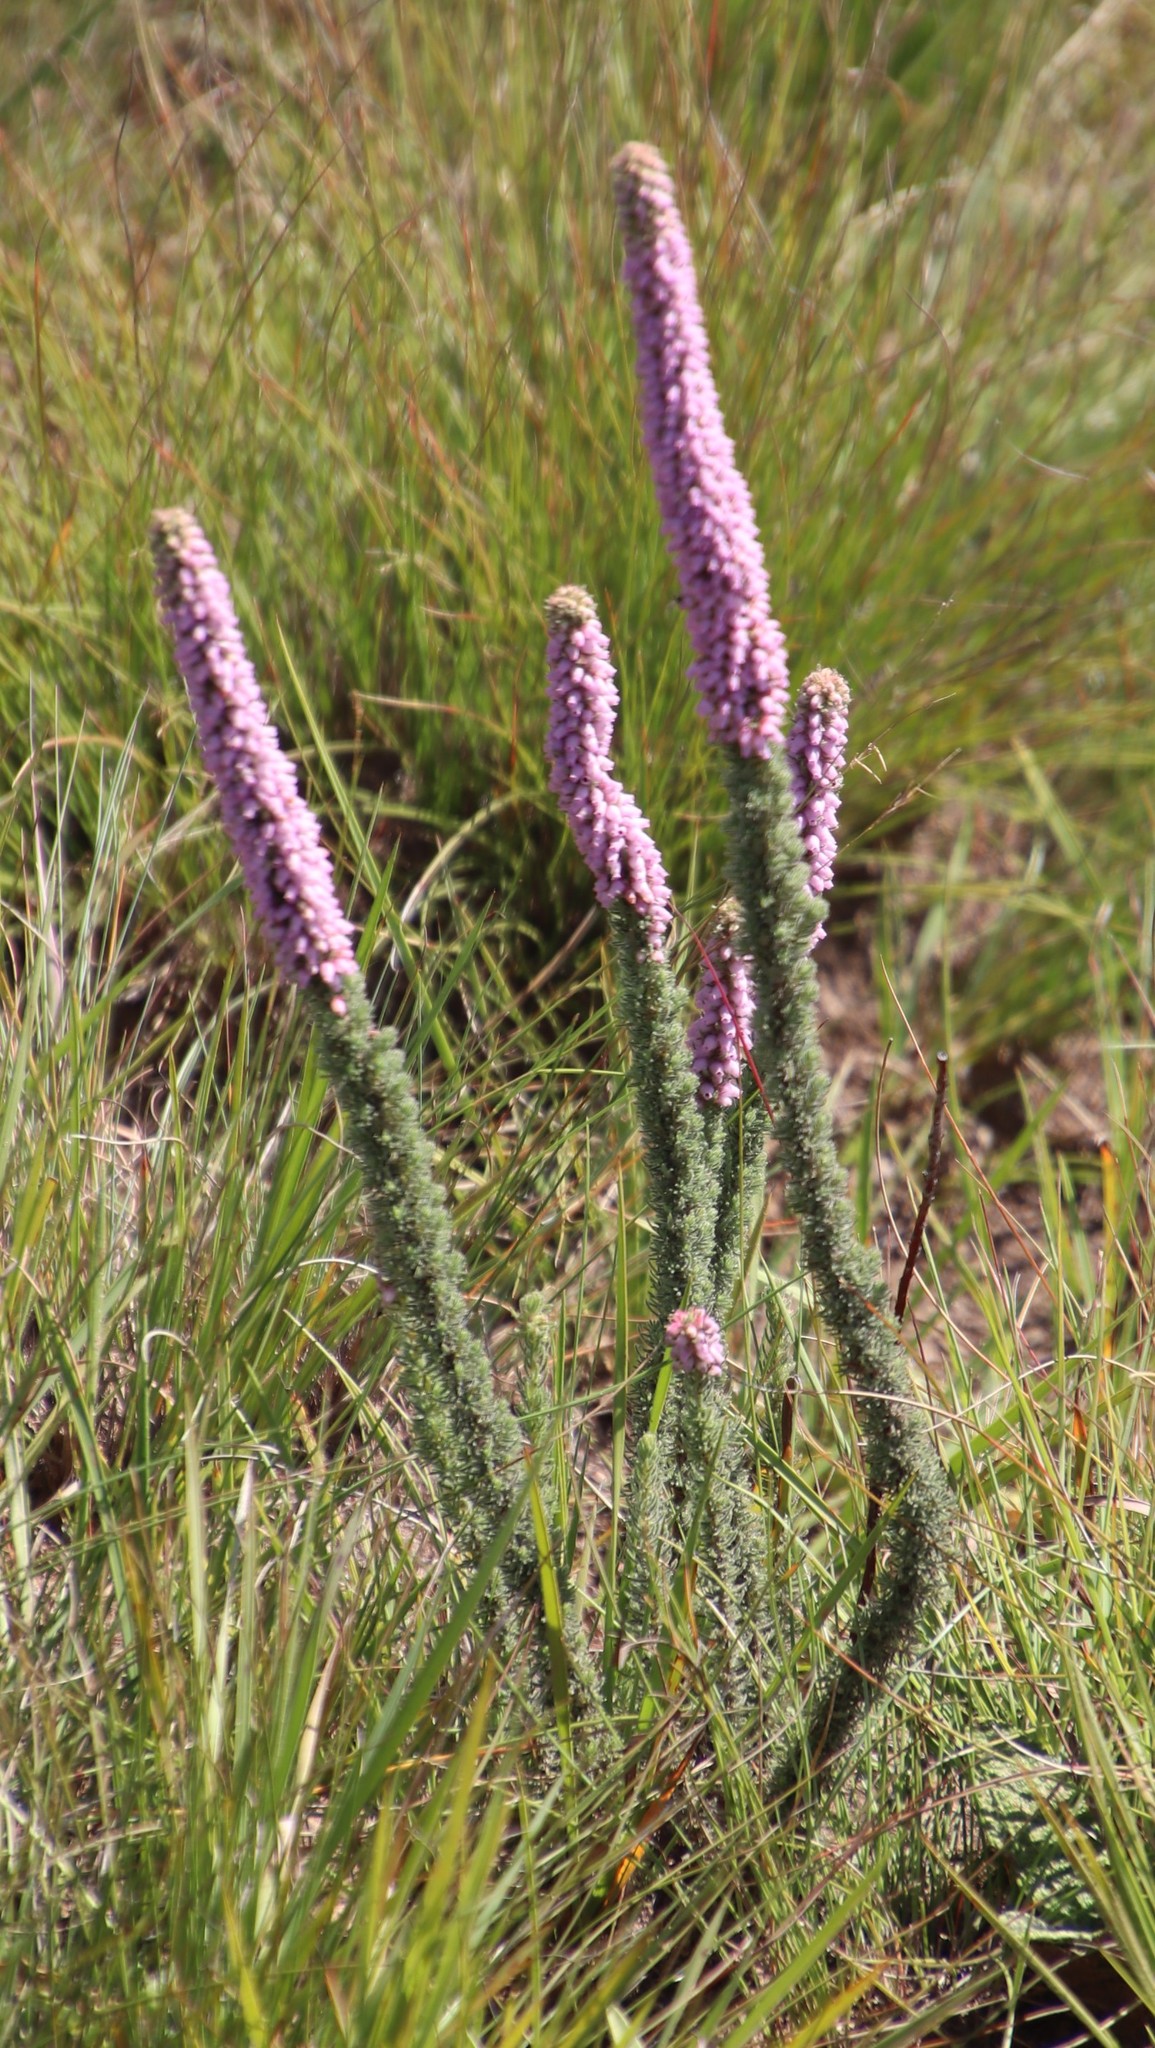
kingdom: Plantae
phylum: Tracheophyta
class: Magnoliopsida
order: Ericales
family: Ericaceae
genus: Erica
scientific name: Erica alopecurus
